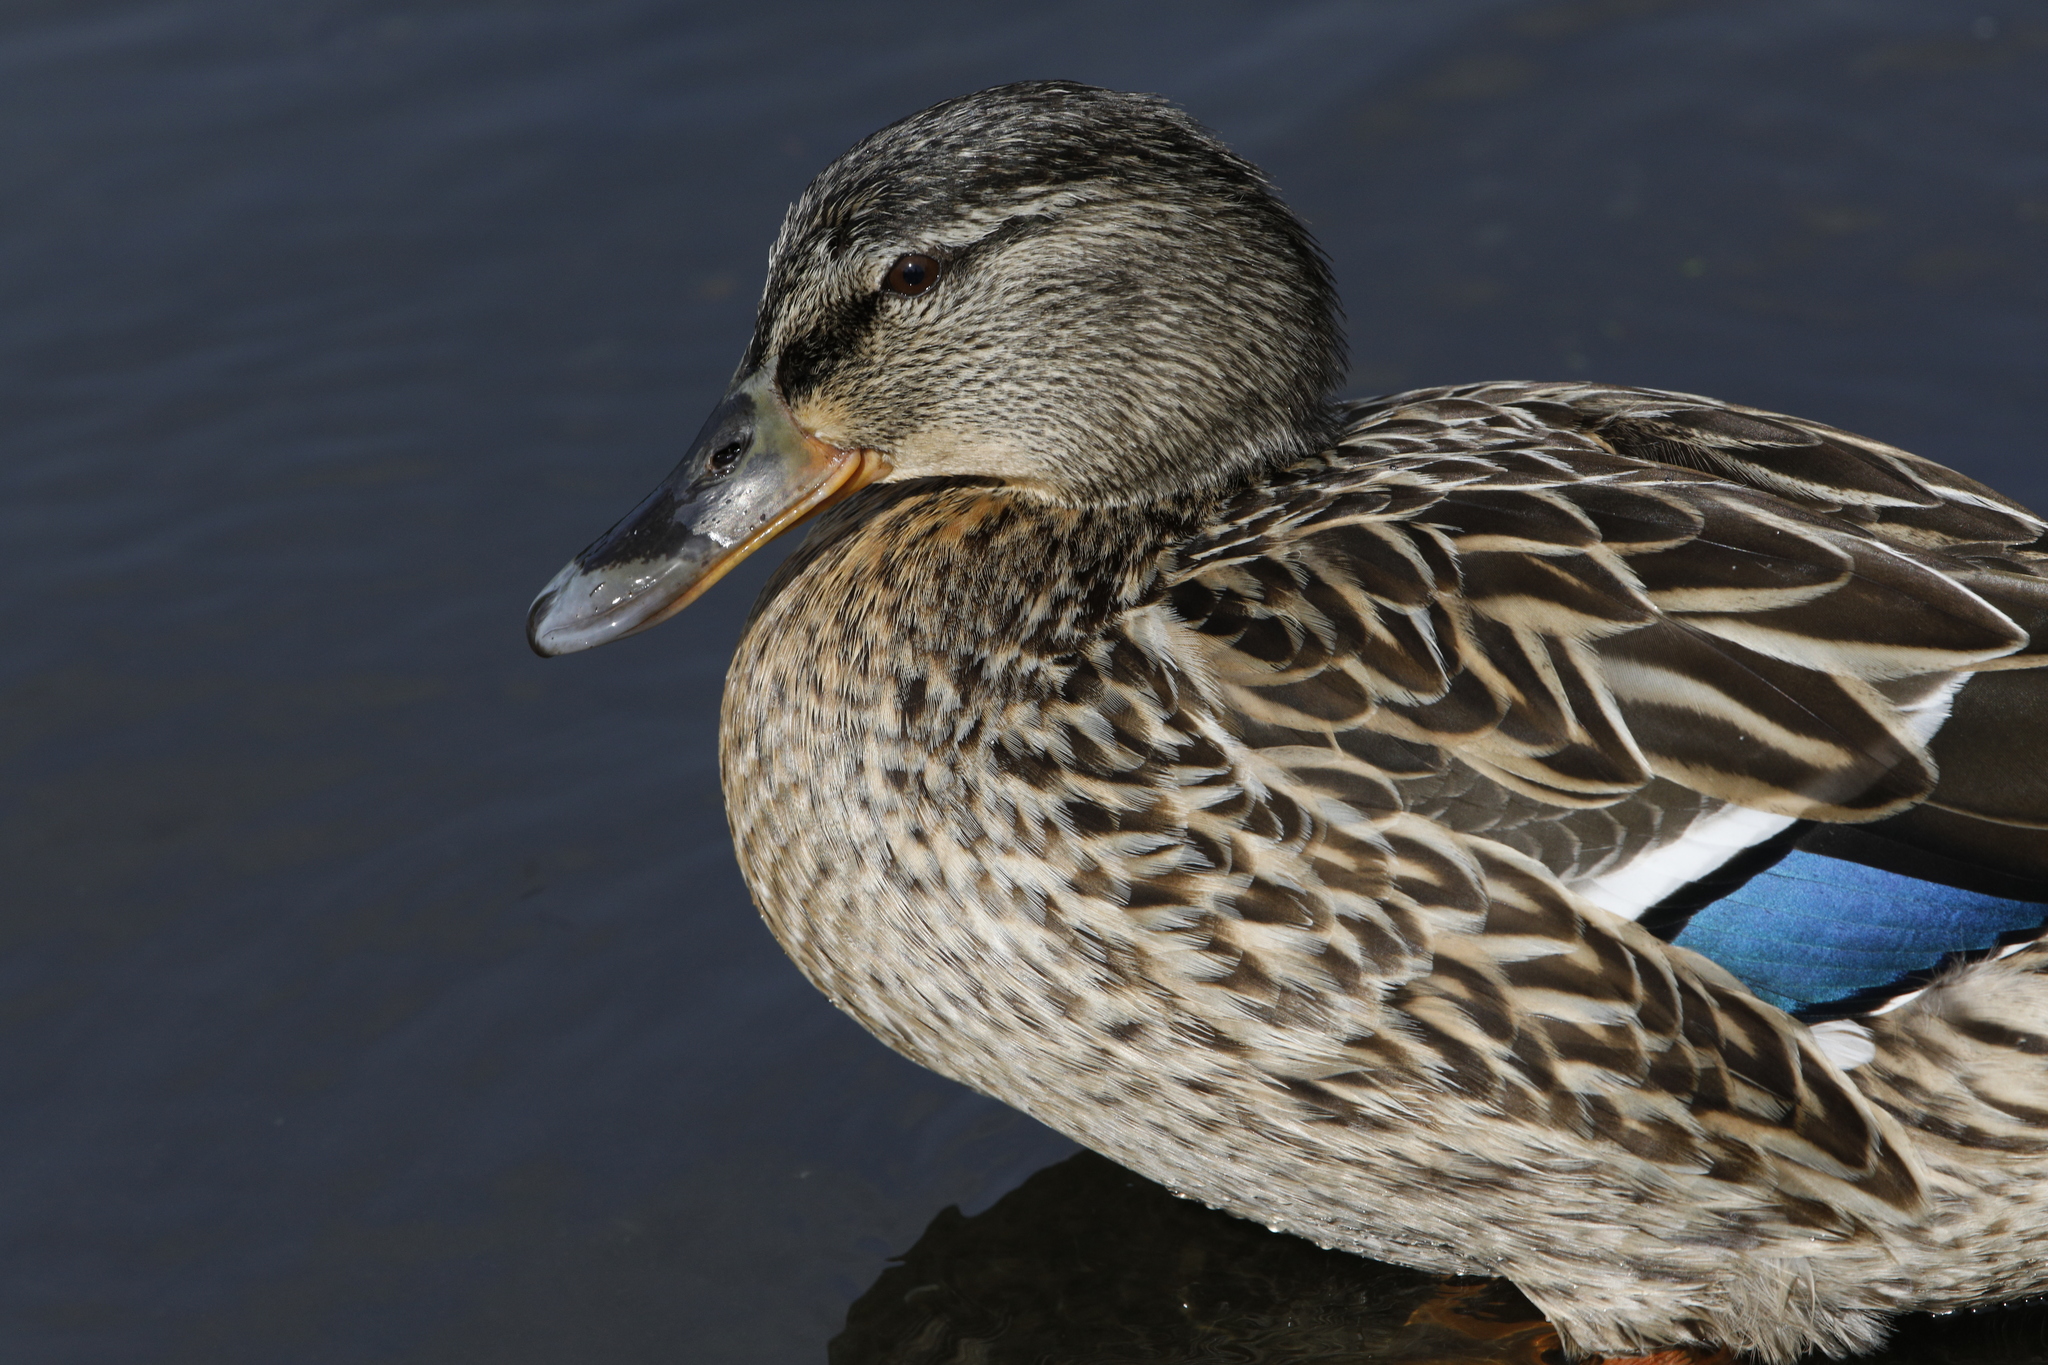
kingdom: Animalia
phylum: Chordata
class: Aves
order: Anseriformes
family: Anatidae
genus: Anas
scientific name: Anas platyrhynchos
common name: Mallard
